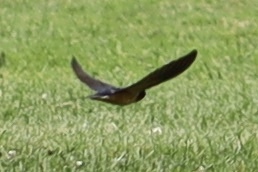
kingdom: Animalia
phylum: Chordata
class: Aves
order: Passeriformes
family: Hirundinidae
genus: Hirundo
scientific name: Hirundo rustica
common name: Barn swallow
